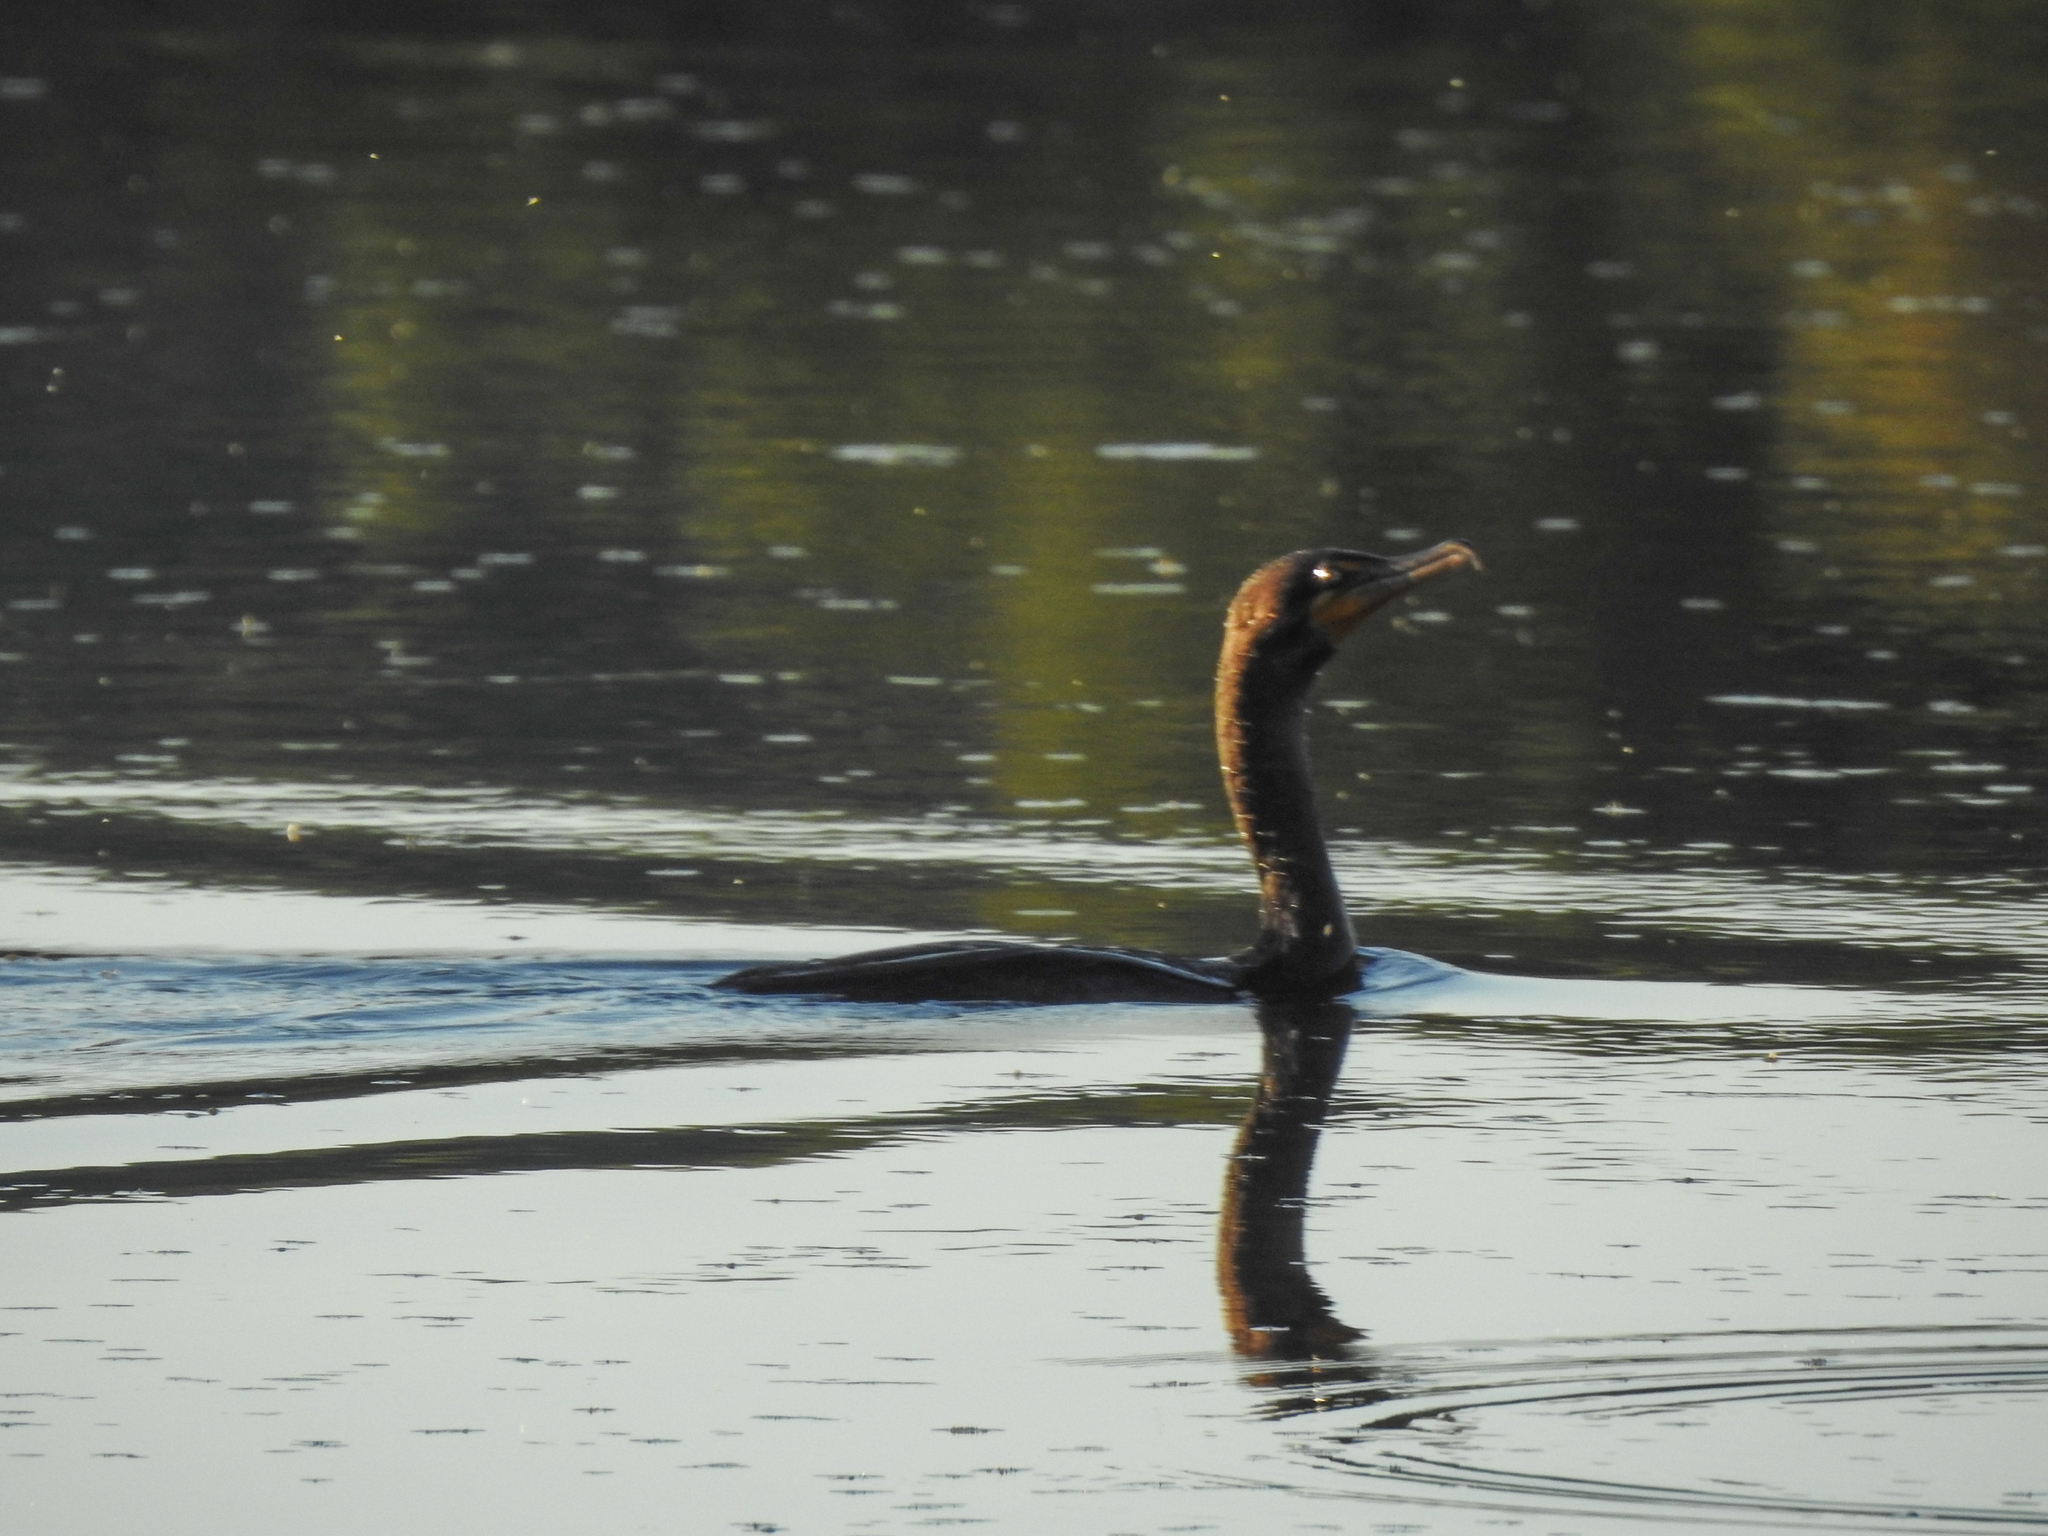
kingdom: Animalia
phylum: Chordata
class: Aves
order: Suliformes
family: Phalacrocoracidae
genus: Phalacrocorax
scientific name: Phalacrocorax auritus
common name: Double-crested cormorant
